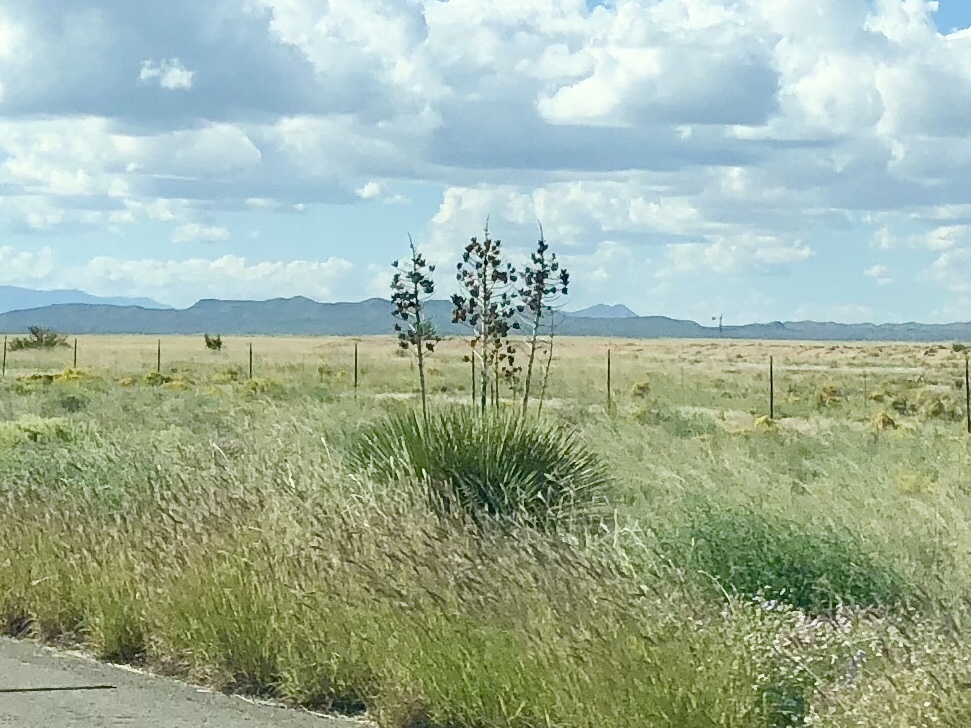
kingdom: Plantae
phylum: Tracheophyta
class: Liliopsida
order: Asparagales
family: Asparagaceae
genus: Yucca
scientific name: Yucca elata
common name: Palmella
